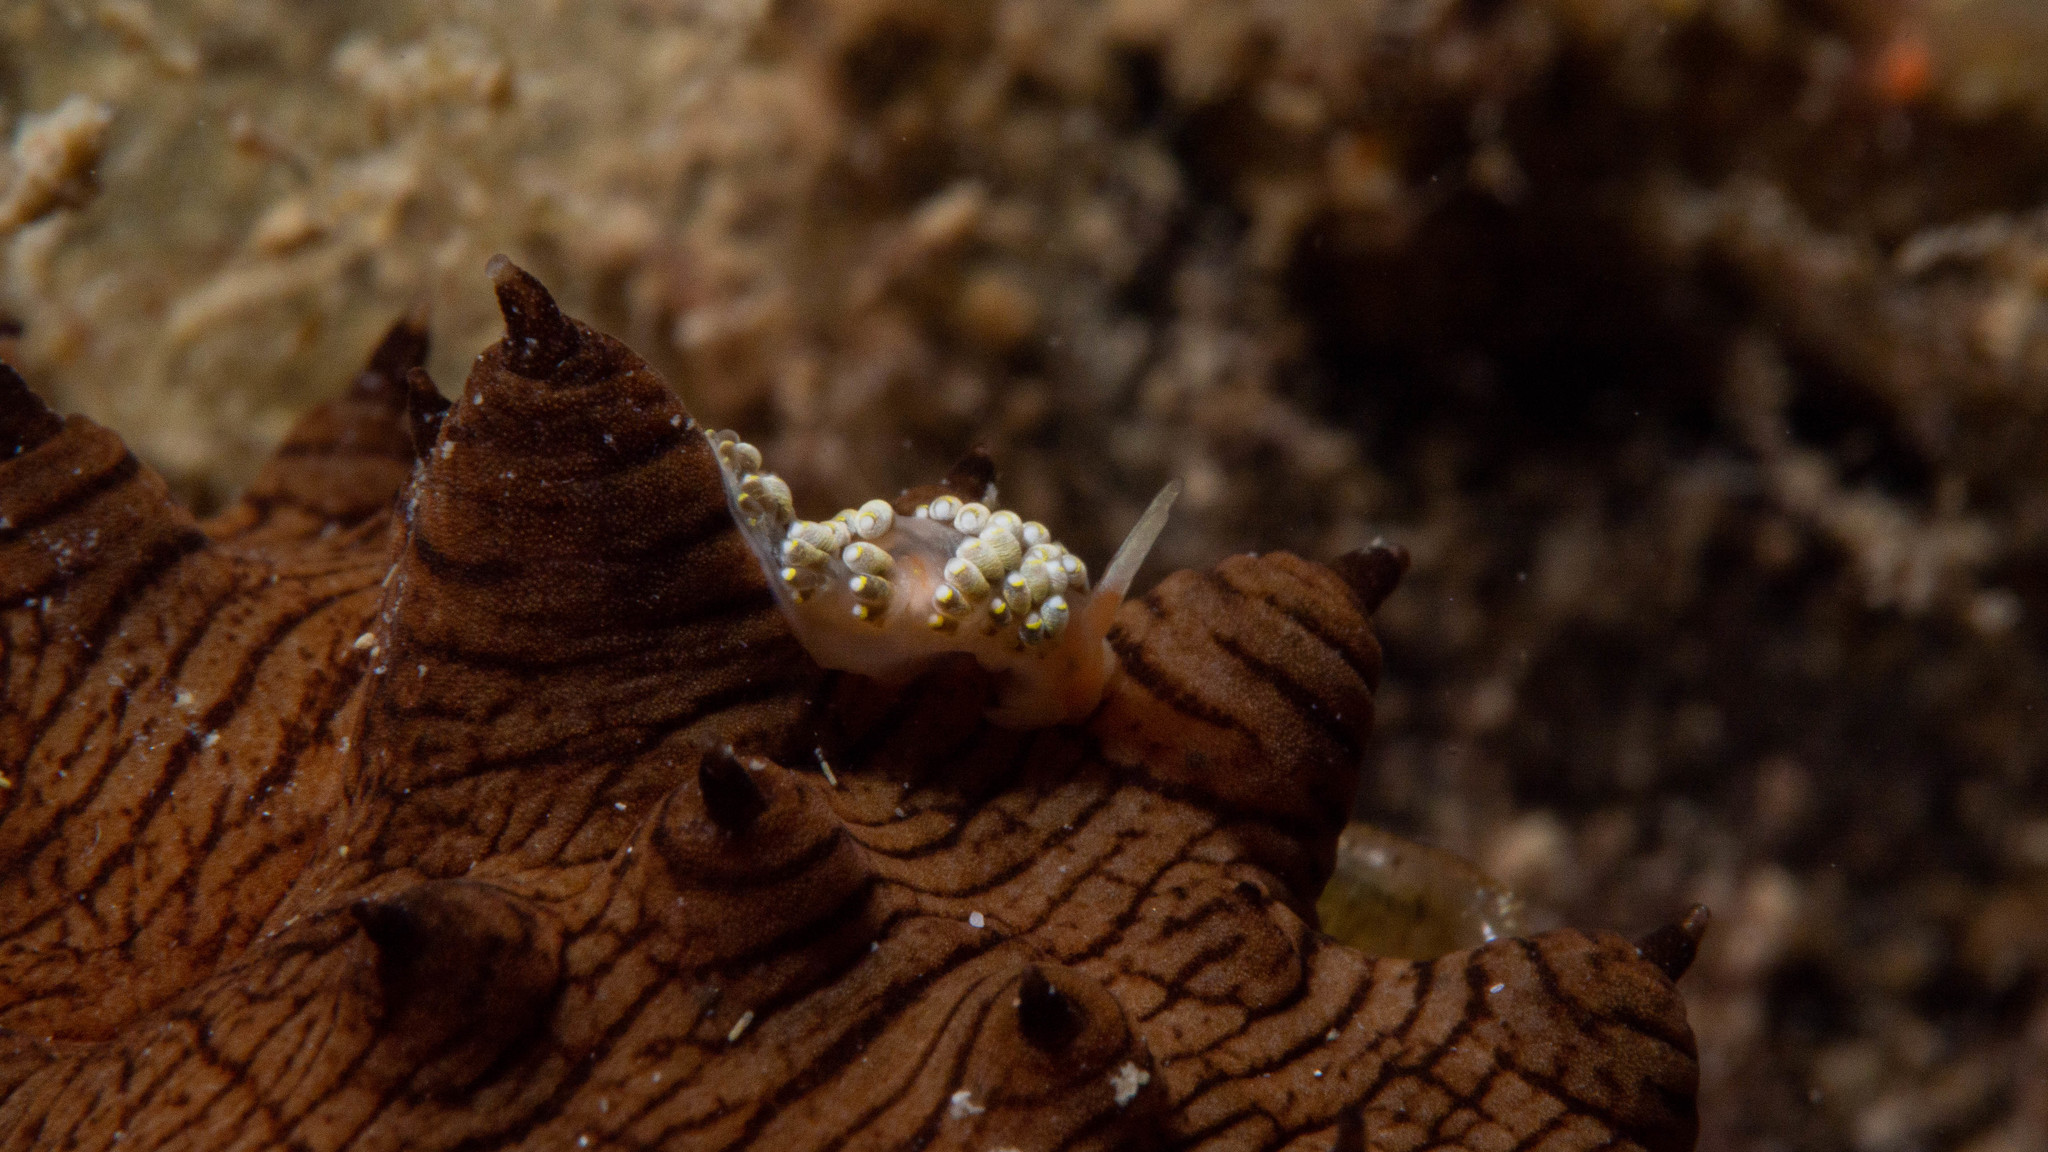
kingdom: Animalia
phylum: Mollusca
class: Gastropoda
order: Nudibranchia
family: Trinchesiidae
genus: Trinchesia
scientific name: Trinchesia catachroma
